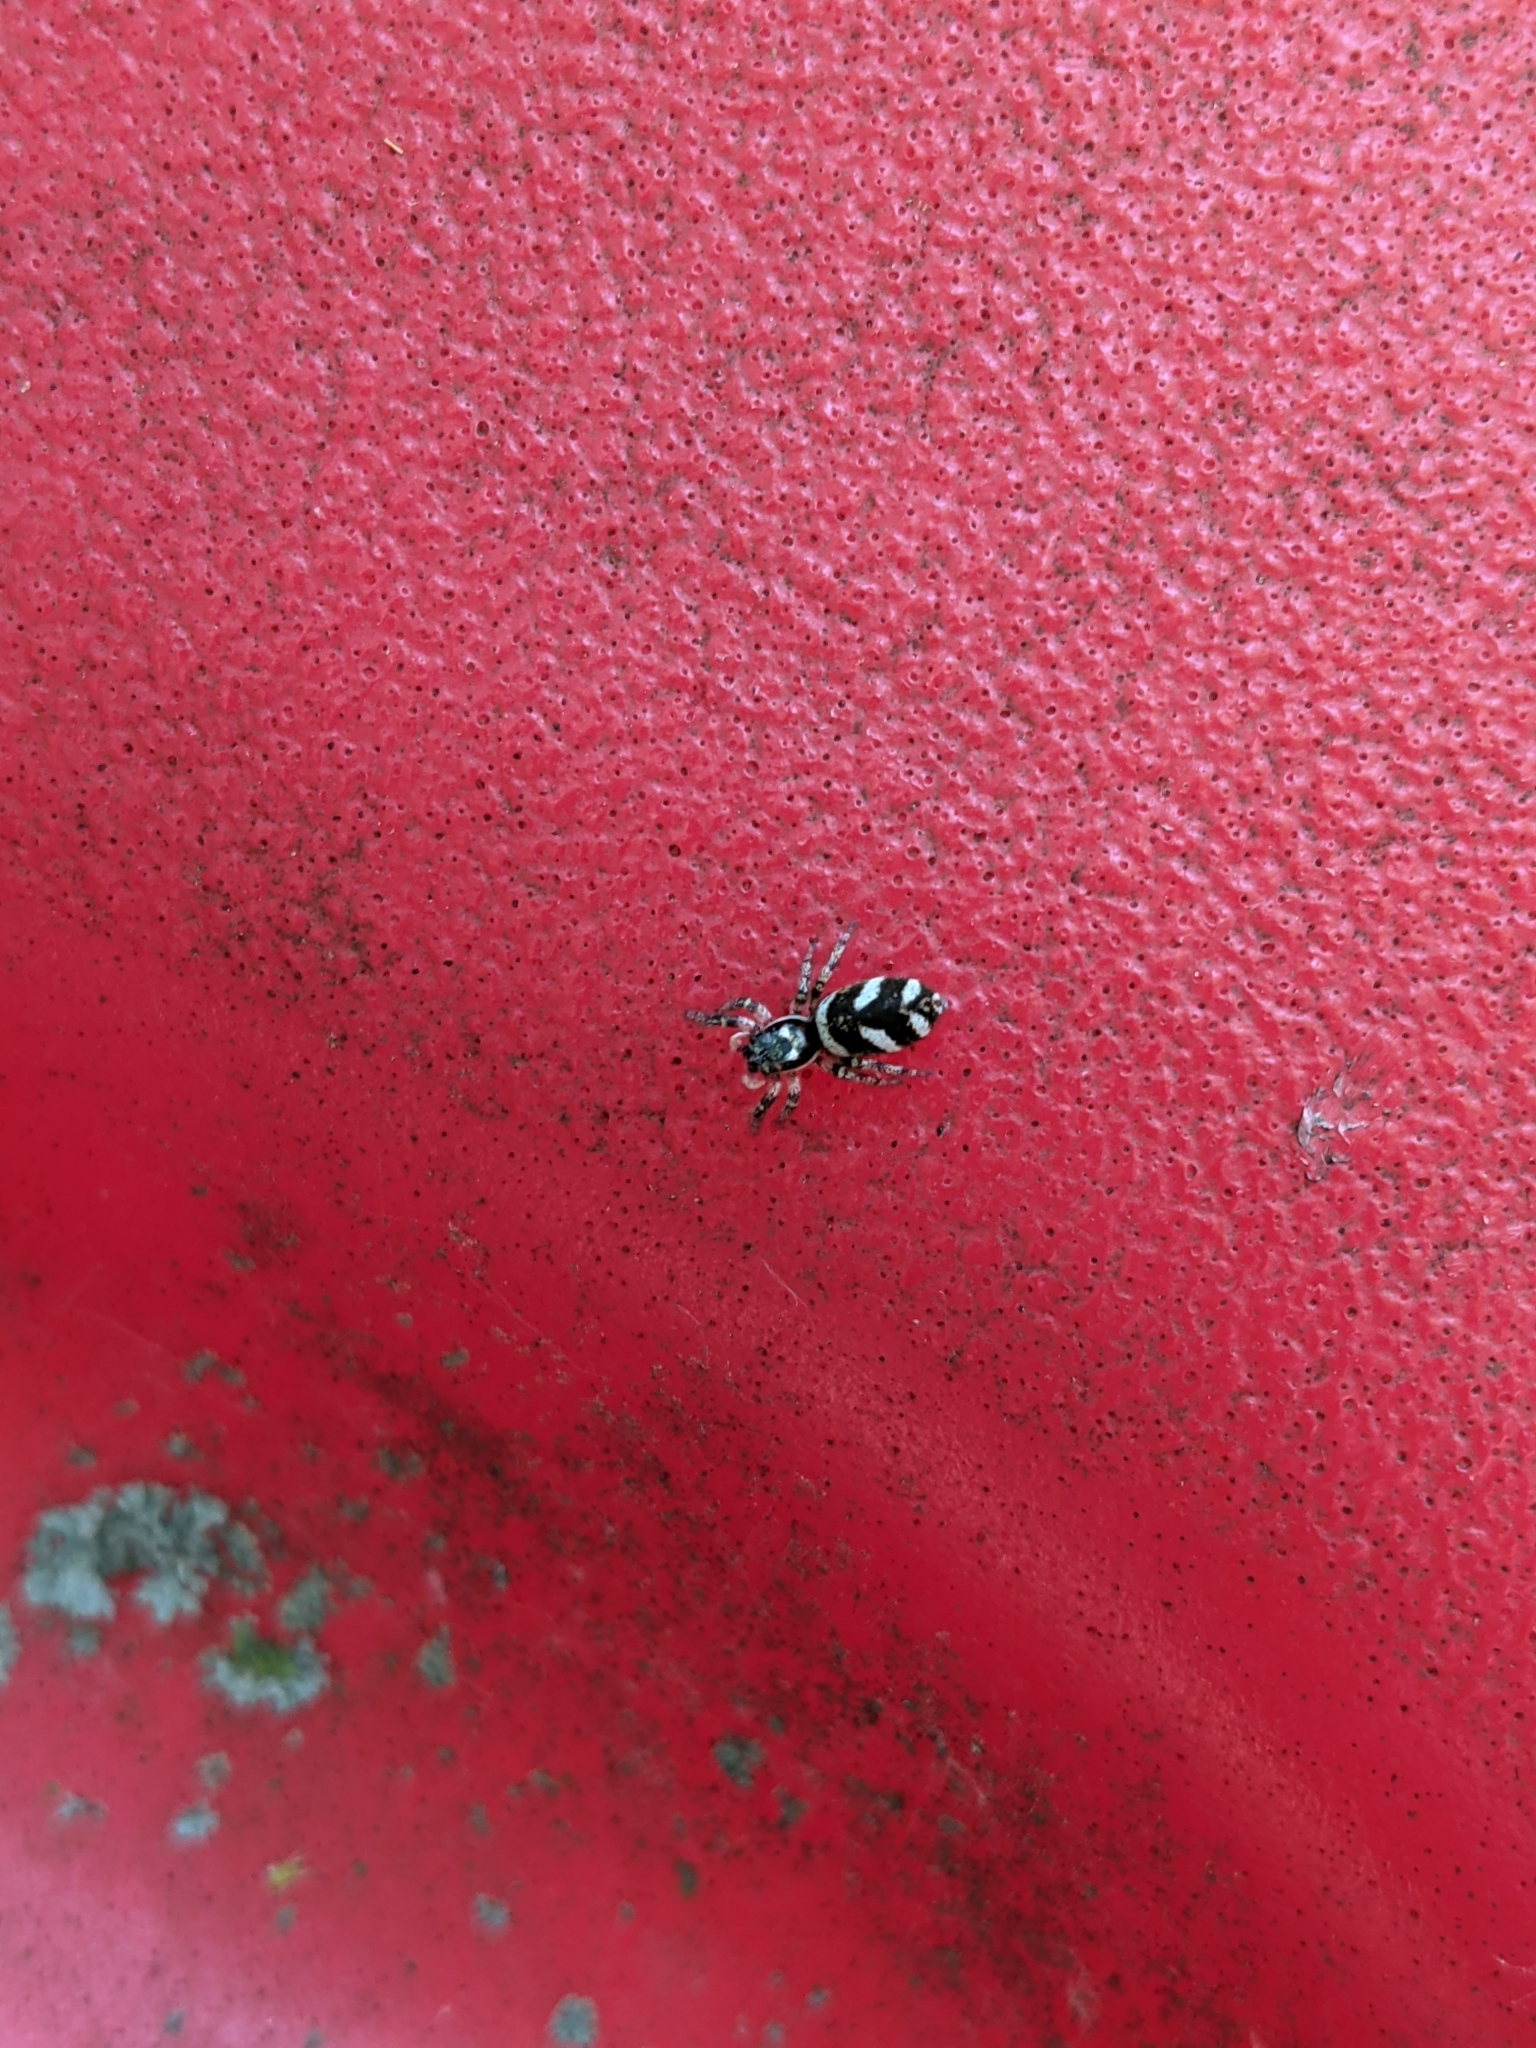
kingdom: Animalia
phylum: Arthropoda
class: Arachnida
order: Araneae
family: Salticidae
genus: Salticus
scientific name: Salticus scenicus
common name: Zebra jumper
